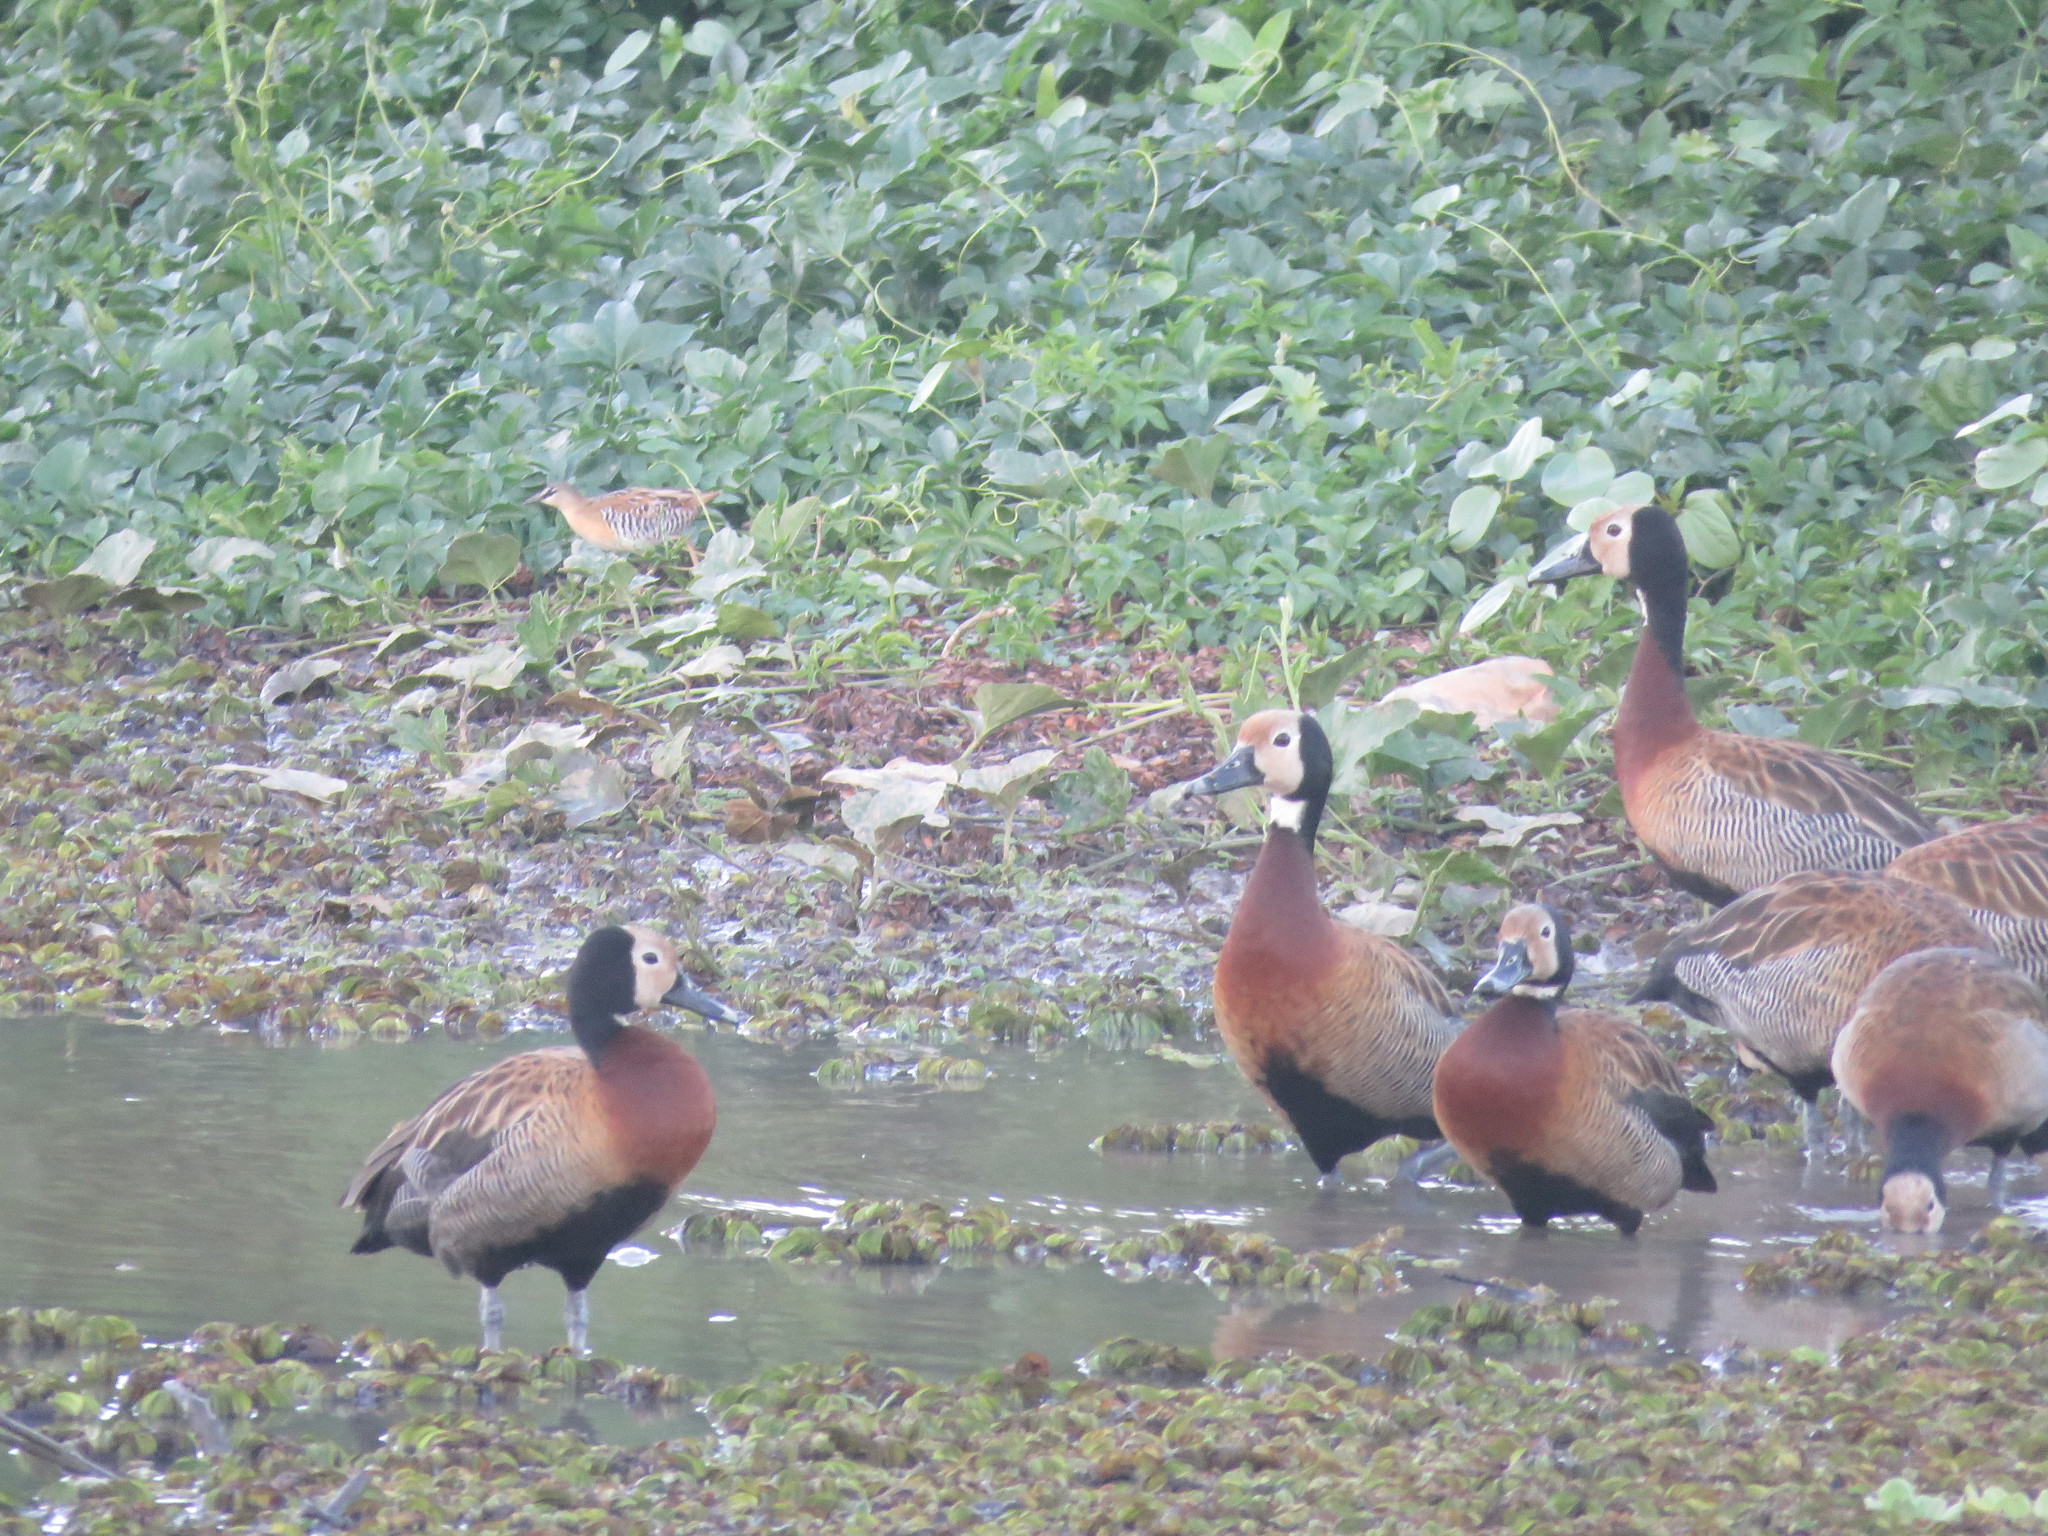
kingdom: Animalia
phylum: Chordata
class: Aves
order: Anseriformes
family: Anatidae
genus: Dendrocygna
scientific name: Dendrocygna viduata
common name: White-faced whistling duck
